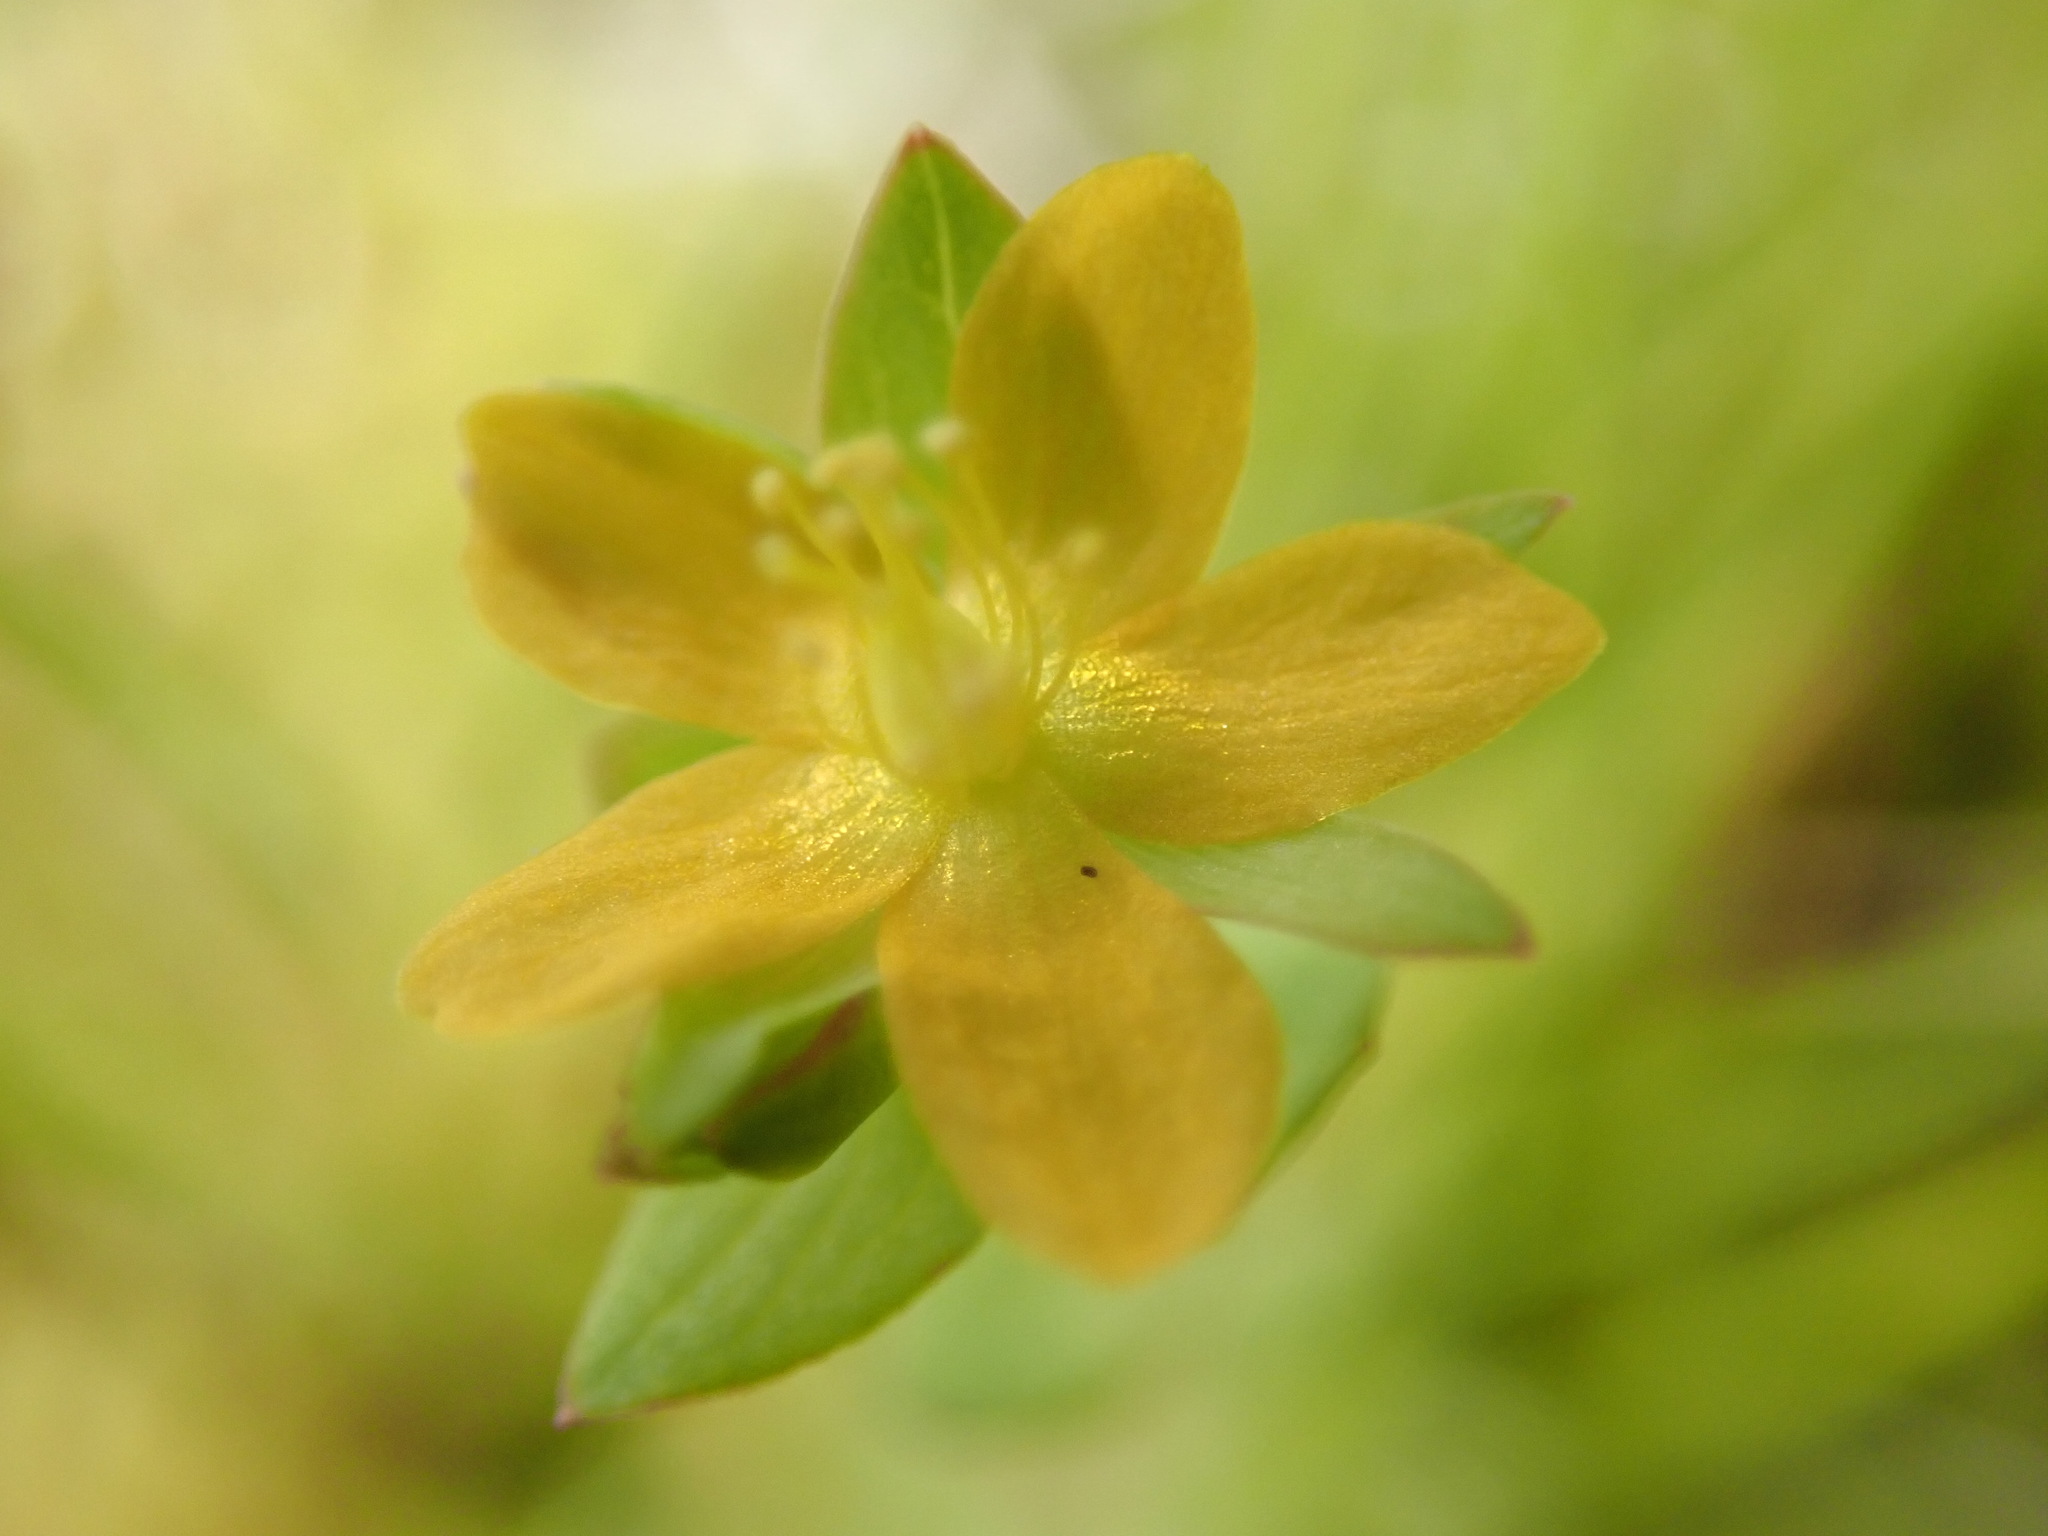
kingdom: Plantae
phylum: Tracheophyta
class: Magnoliopsida
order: Malpighiales
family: Hypericaceae
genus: Hypericum
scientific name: Hypericum anagalloides
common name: Bog st. john's-wort
